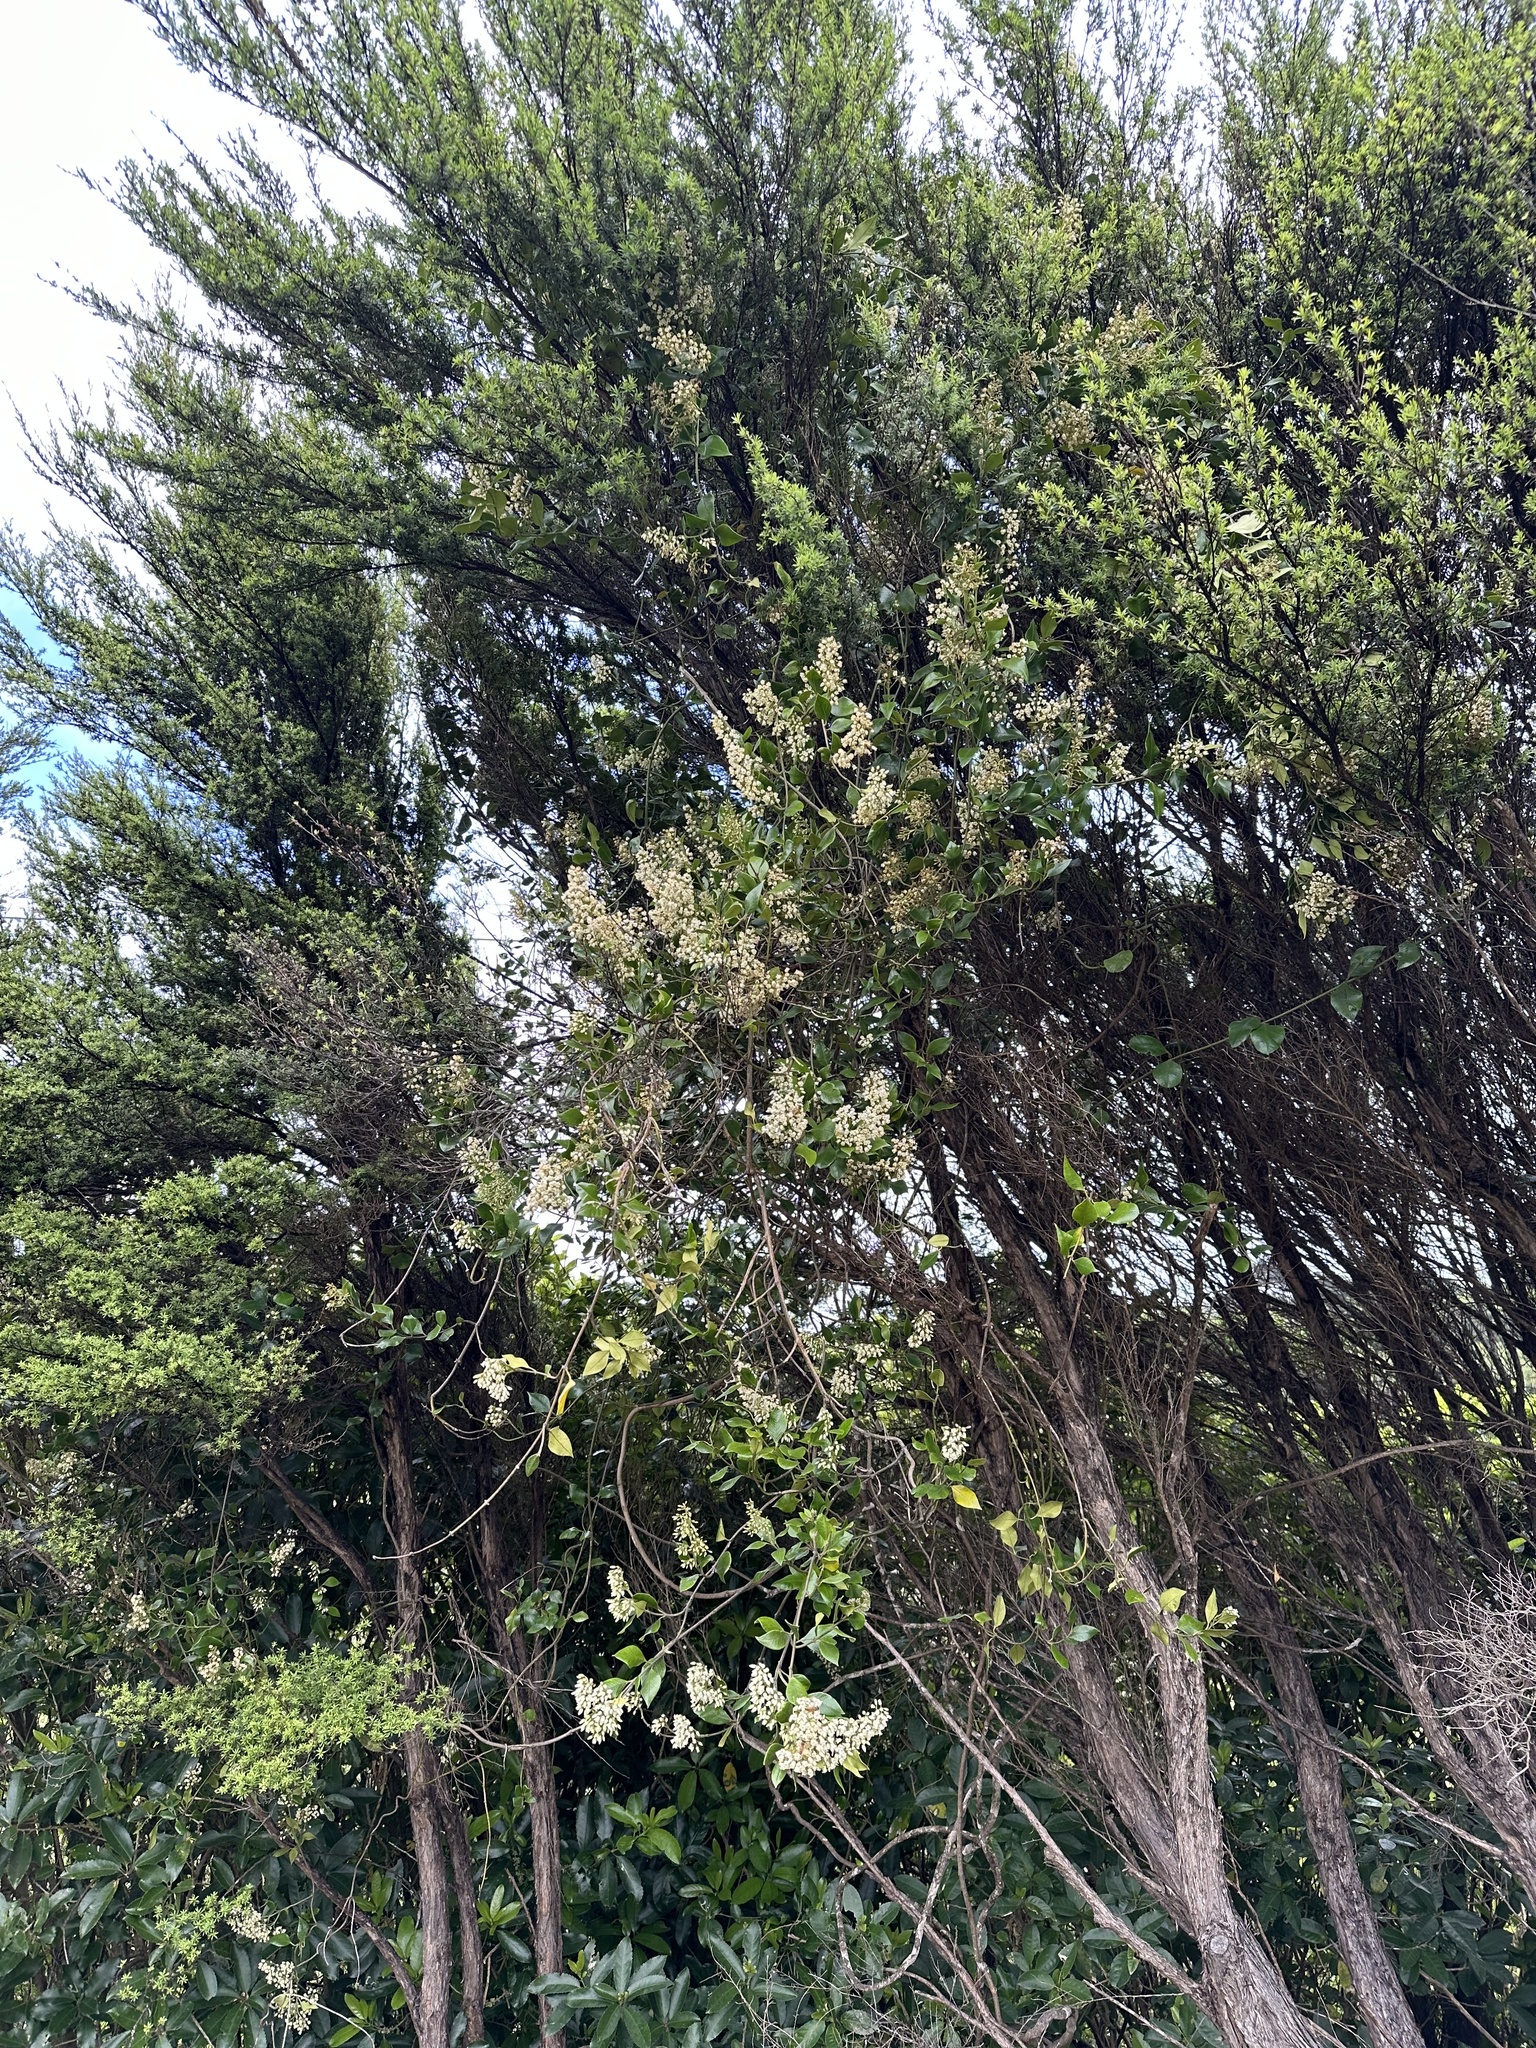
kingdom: Plantae
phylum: Tracheophyta
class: Magnoliopsida
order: Gentianales
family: Apocynaceae
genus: Parsonsia
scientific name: Parsonsia heterophylla
